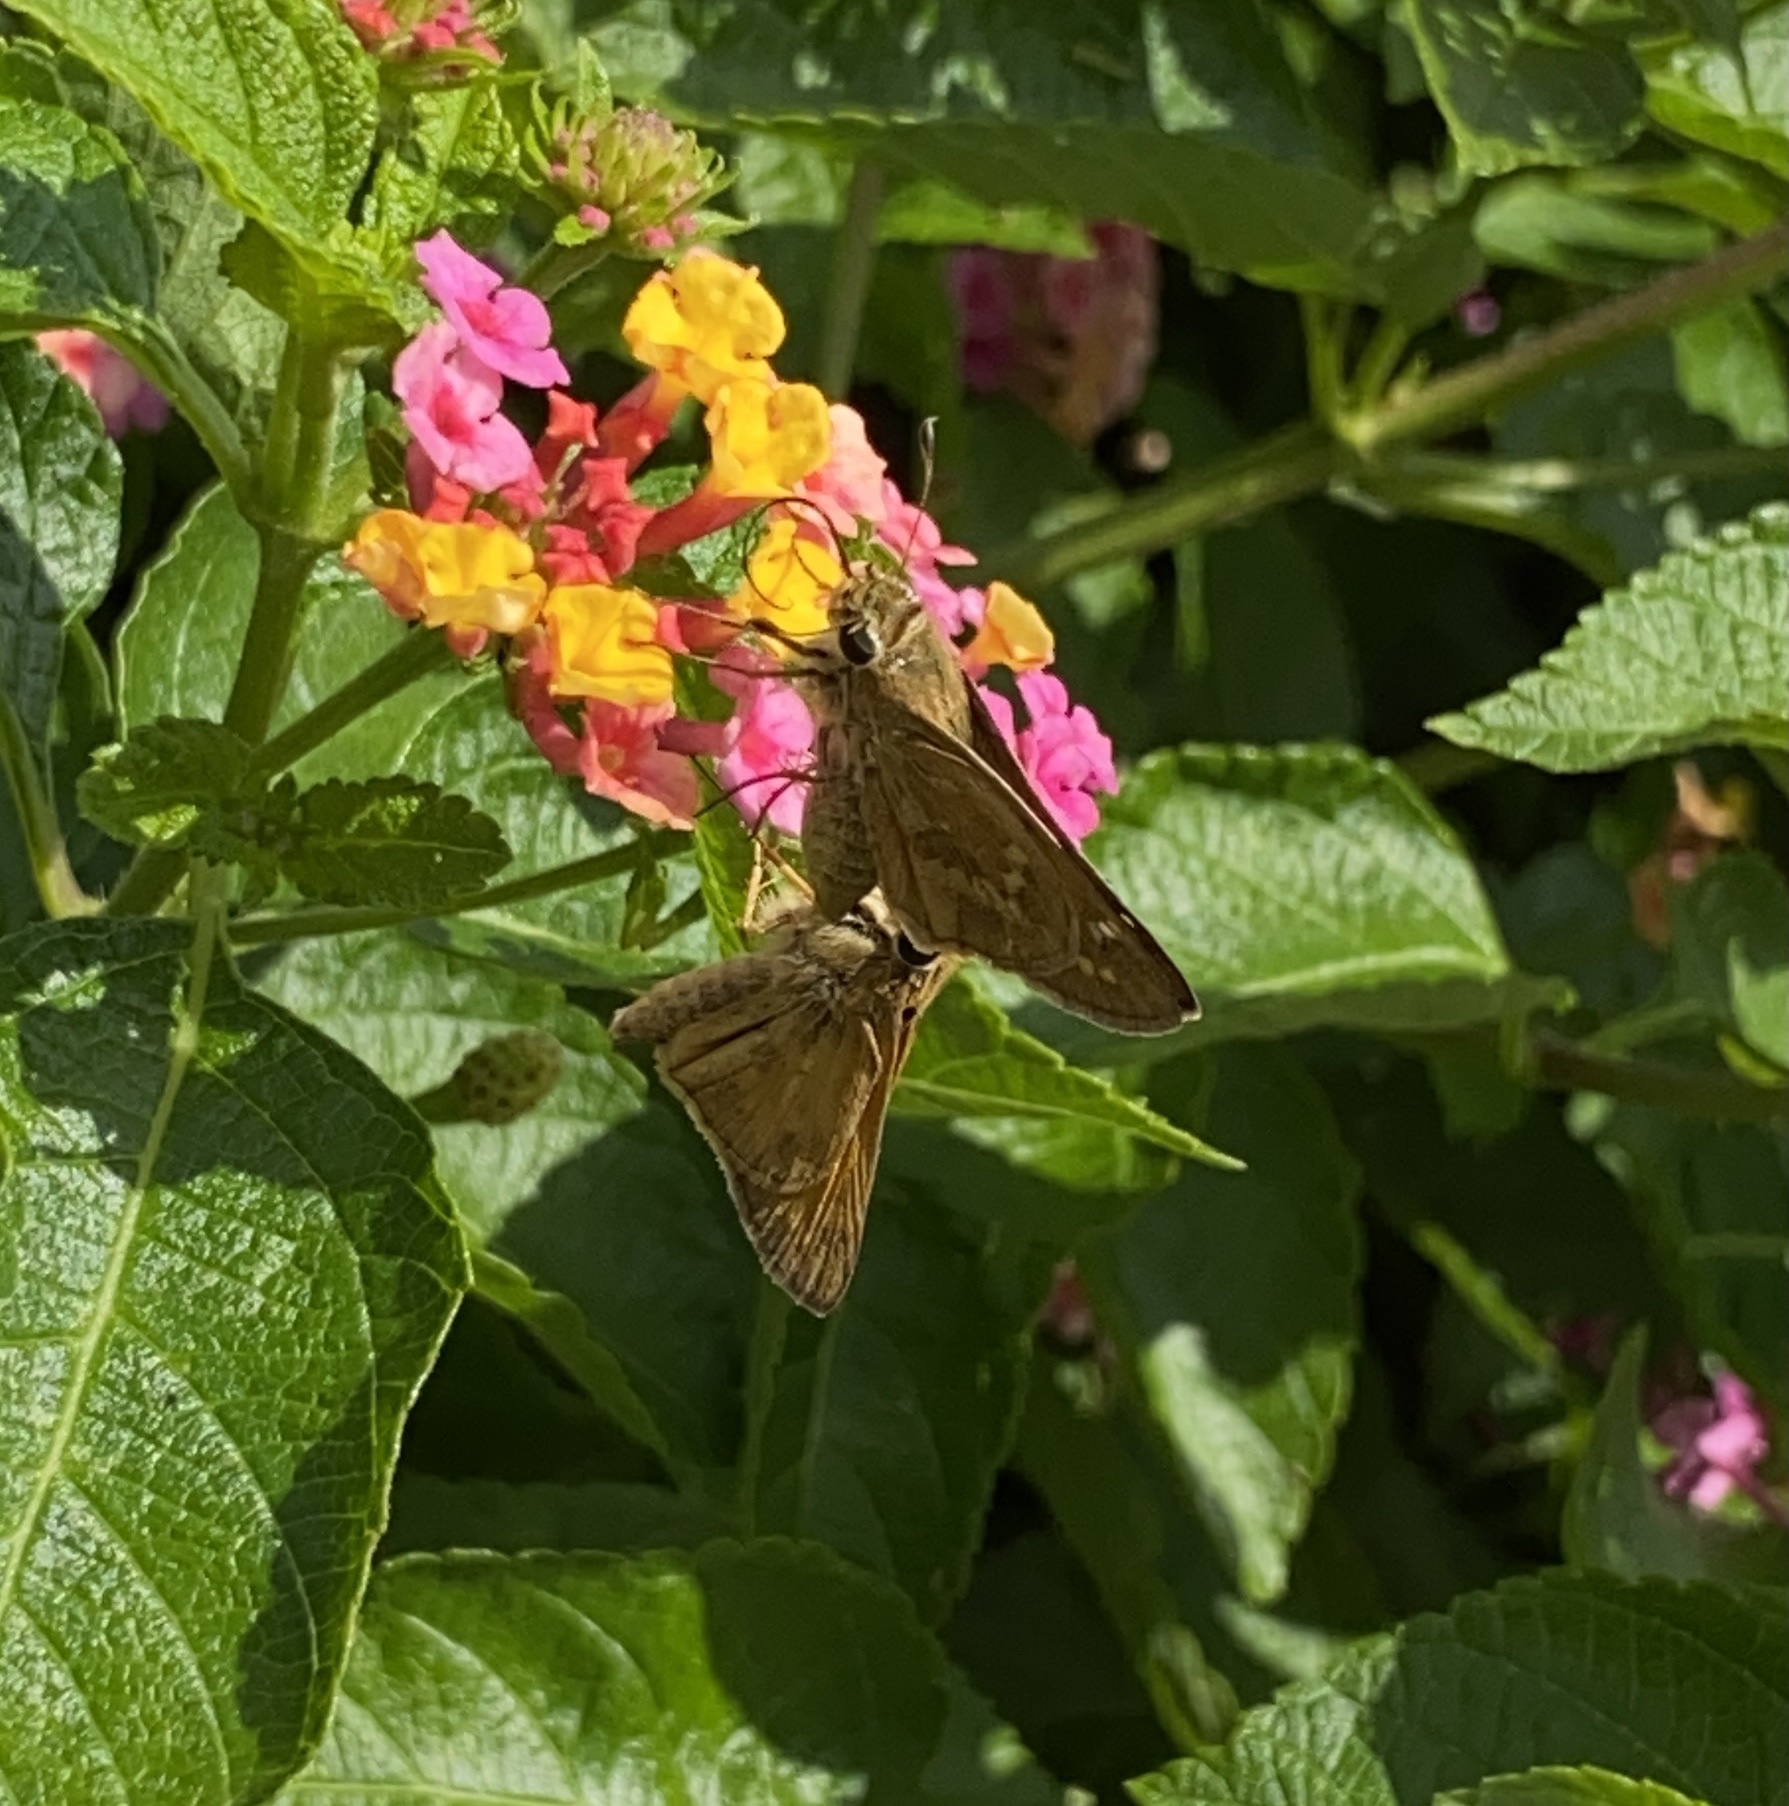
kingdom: Animalia
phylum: Arthropoda
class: Insecta
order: Lepidoptera
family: Hesperiidae
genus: Atalopedes
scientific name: Atalopedes
